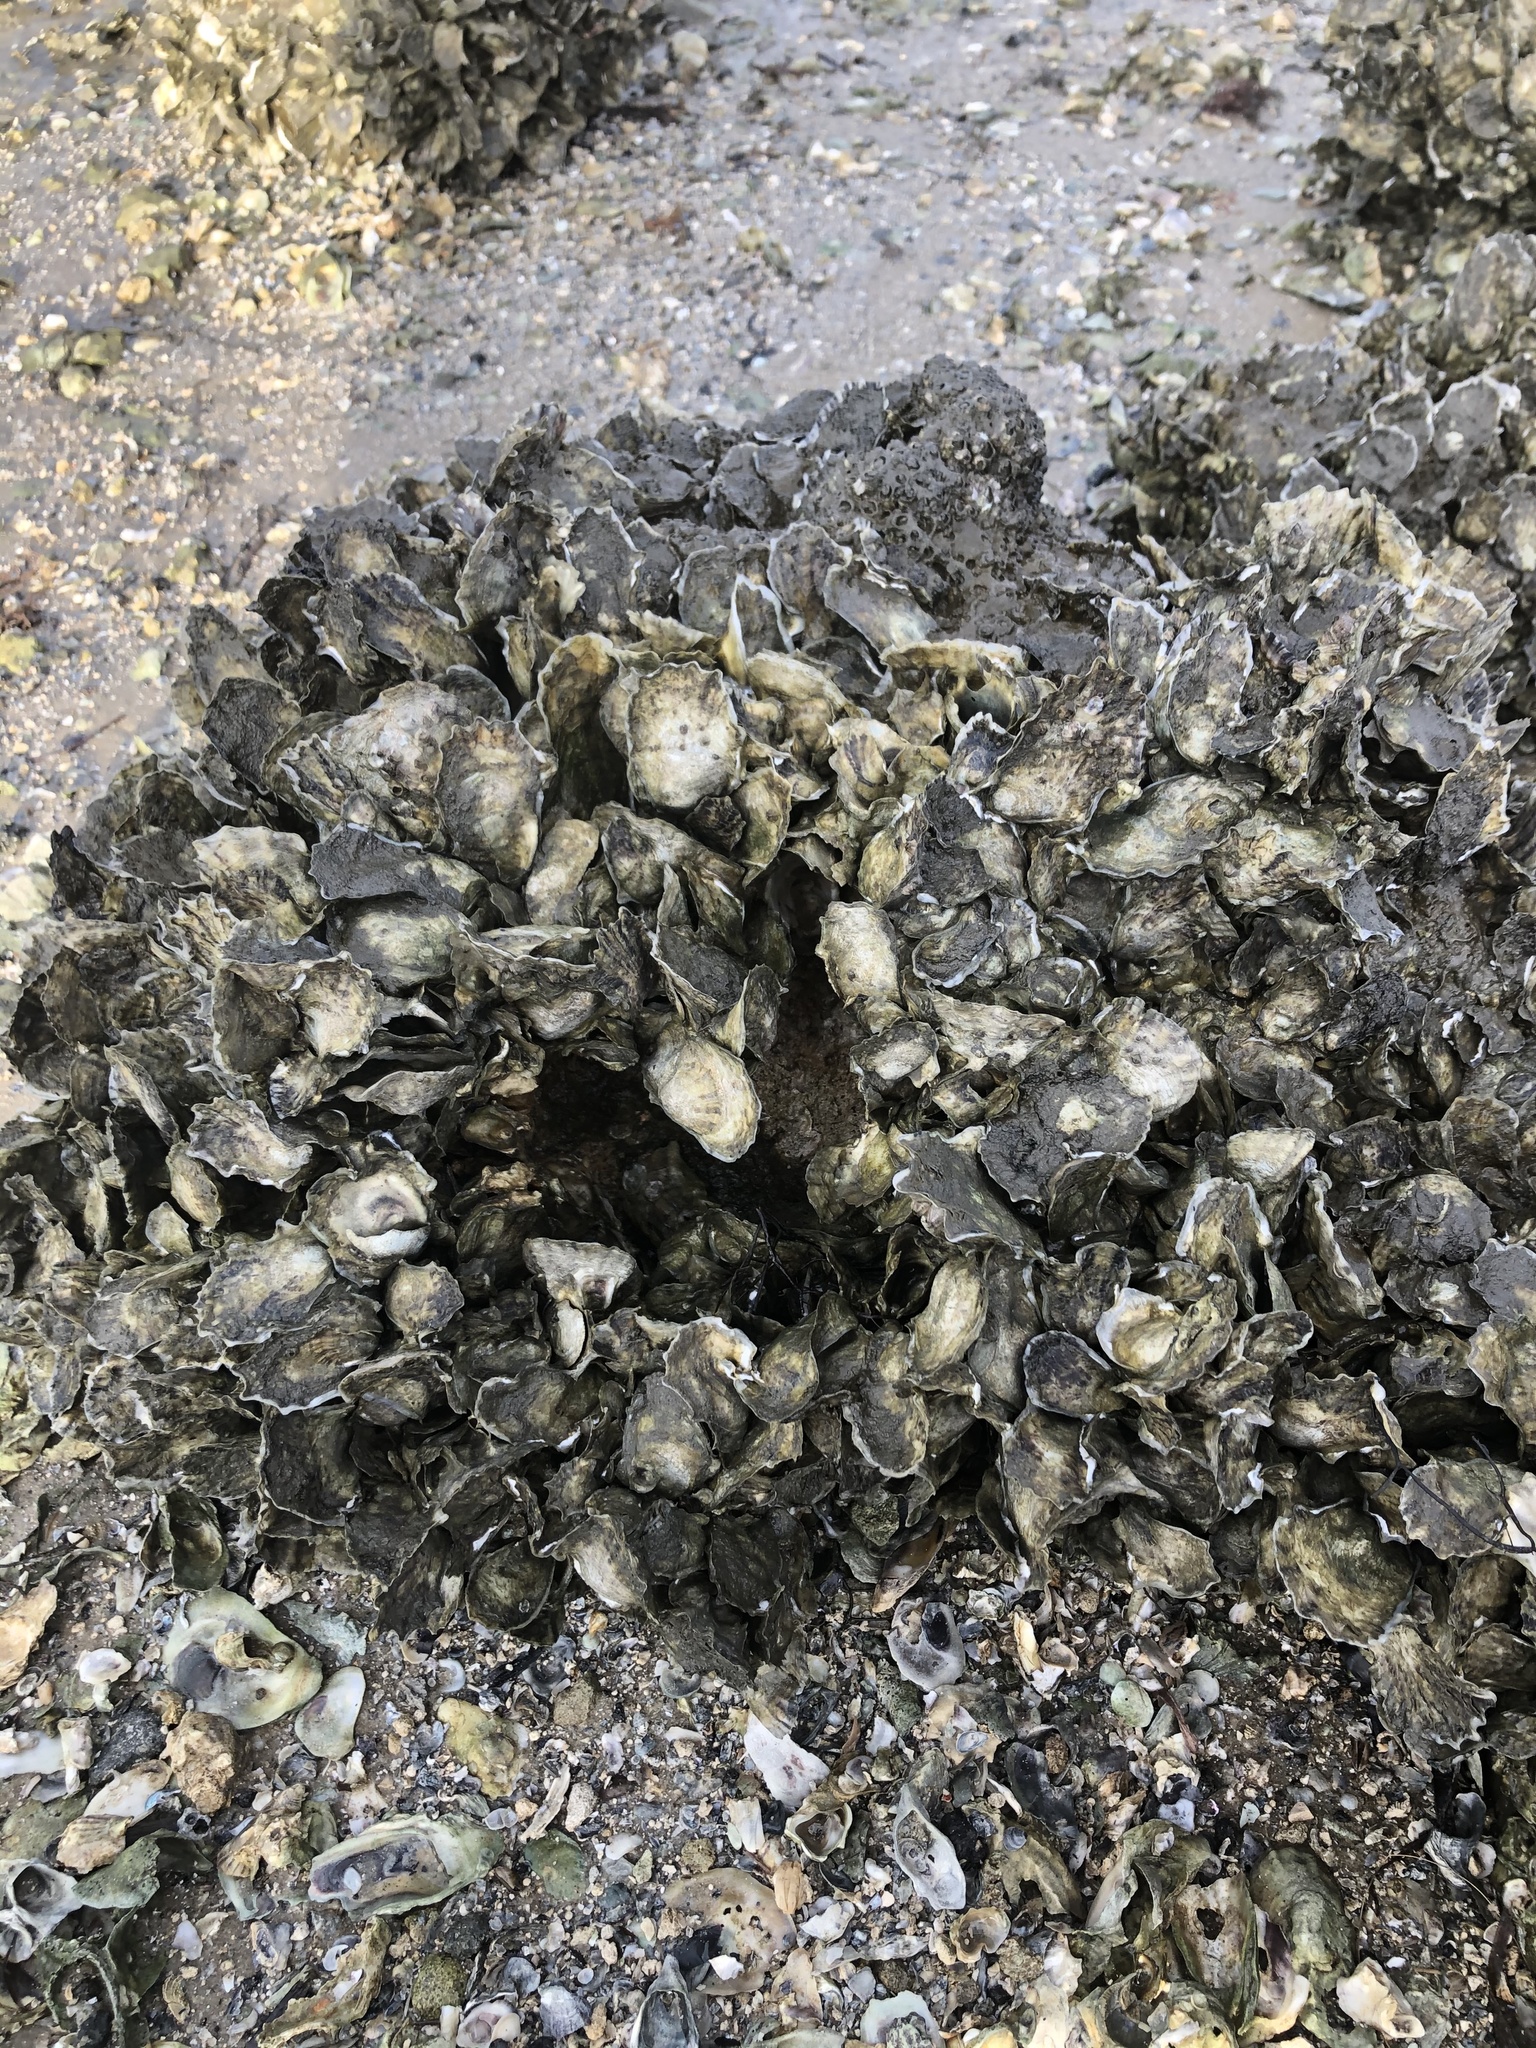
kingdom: Animalia
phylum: Mollusca
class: Bivalvia
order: Ostreida
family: Ostreidae
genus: Crassostrea
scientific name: Crassostrea virginica
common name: American oyster
